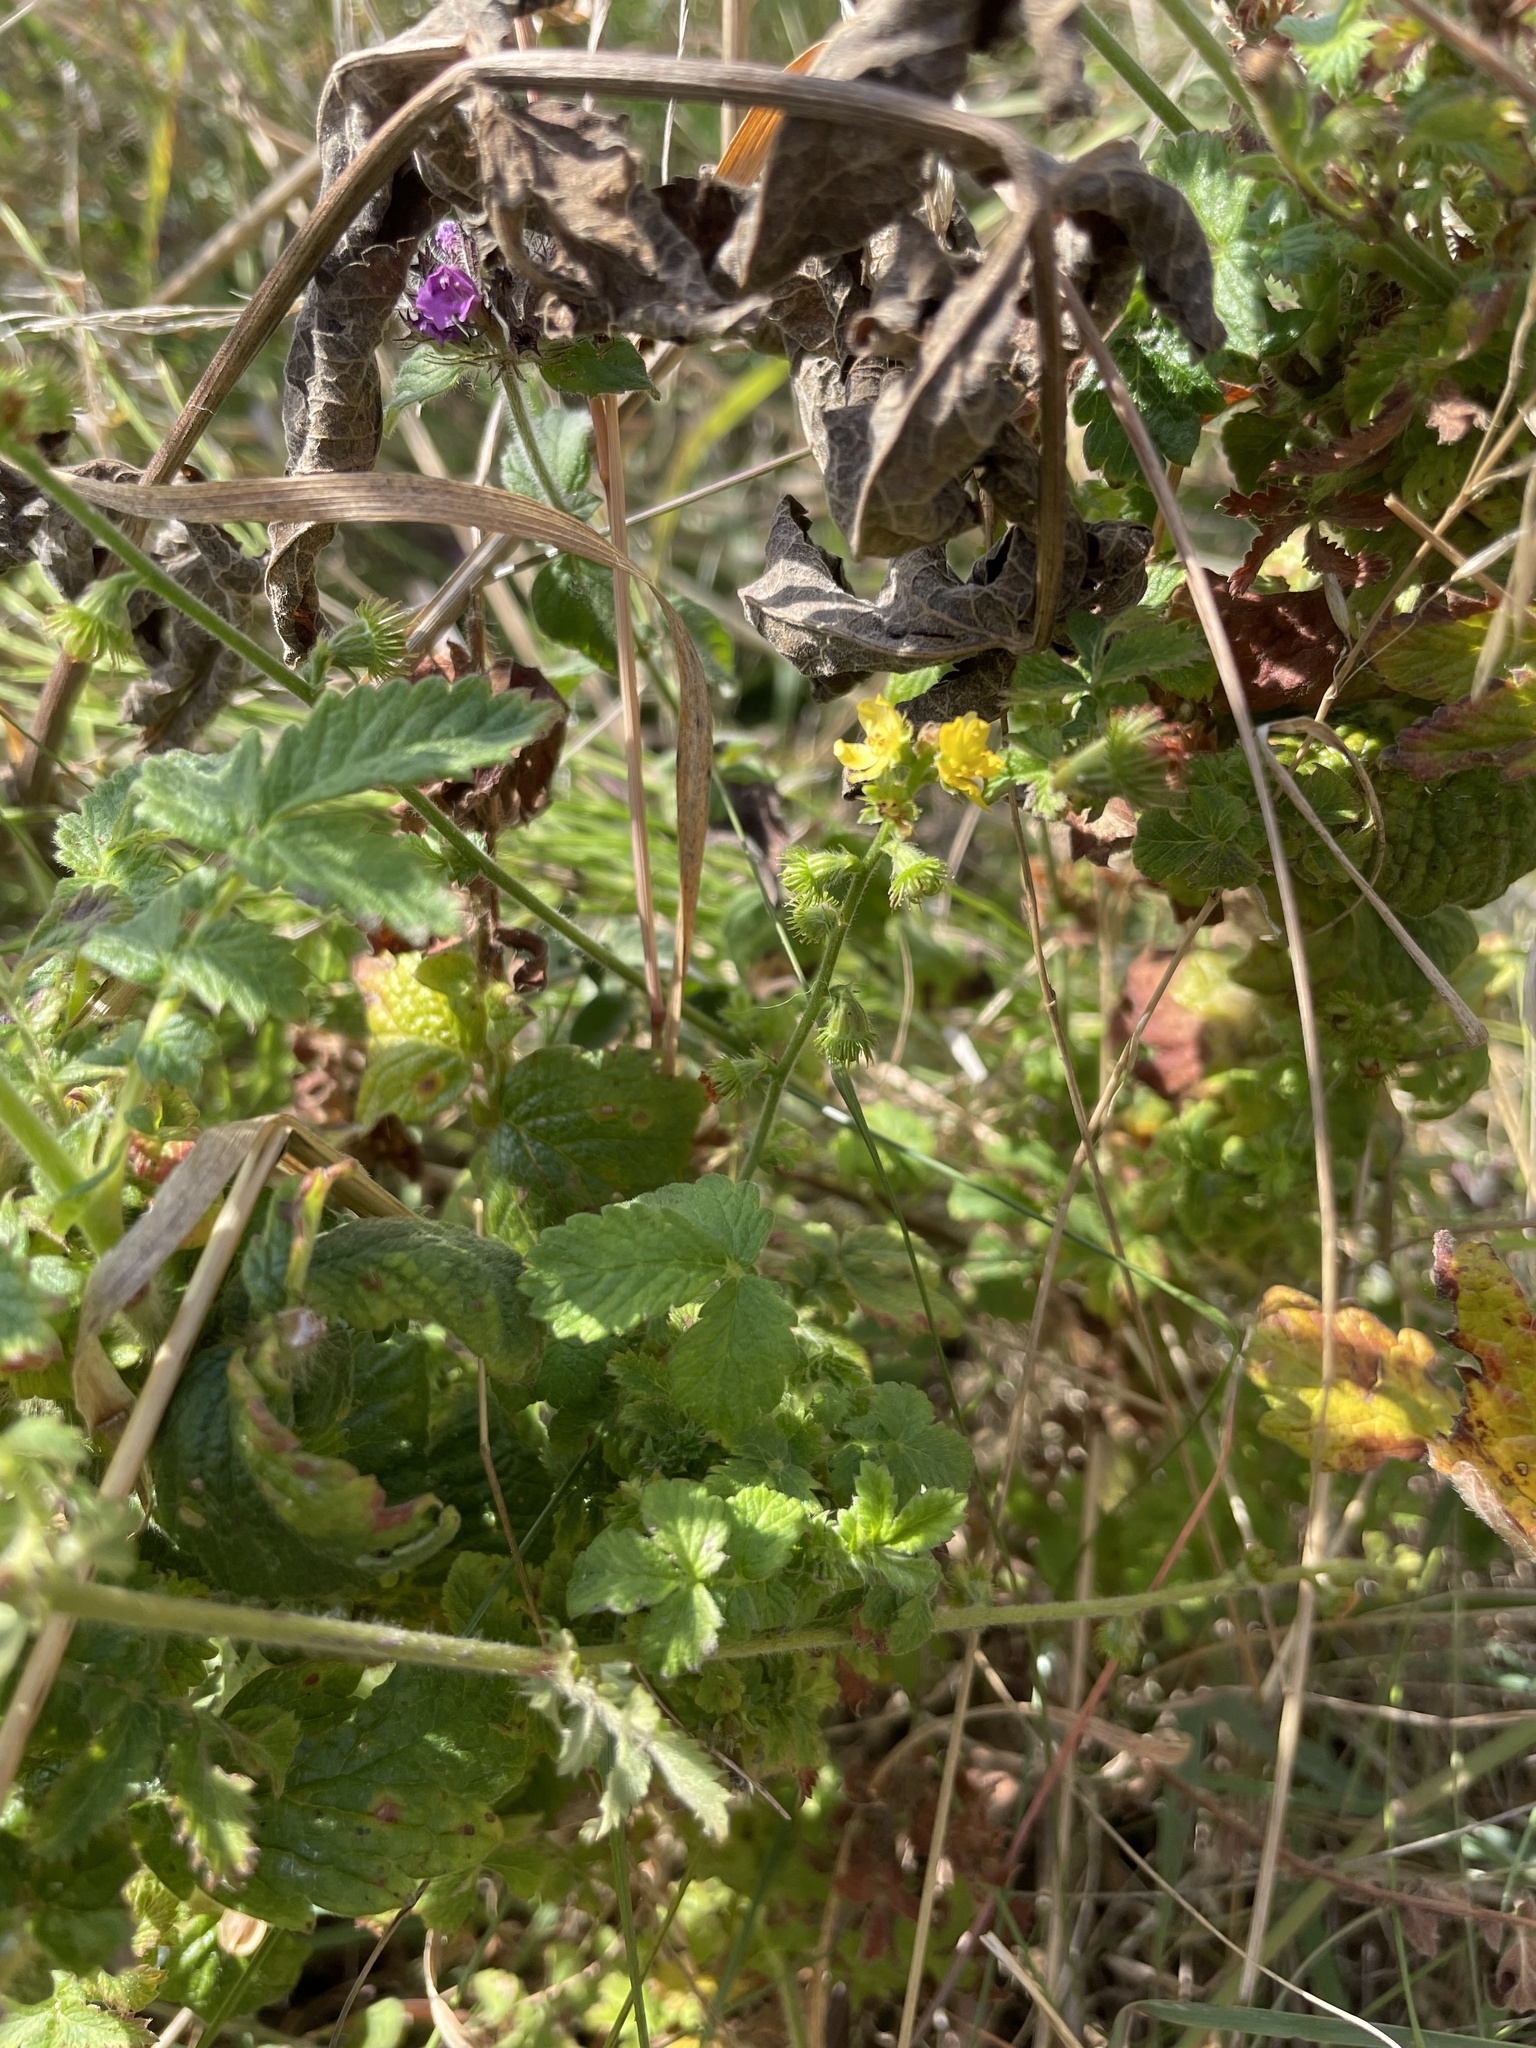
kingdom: Plantae
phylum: Tracheophyta
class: Magnoliopsida
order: Rosales
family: Rosaceae
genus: Agrimonia
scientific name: Agrimonia eupatoria
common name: Agrimony
